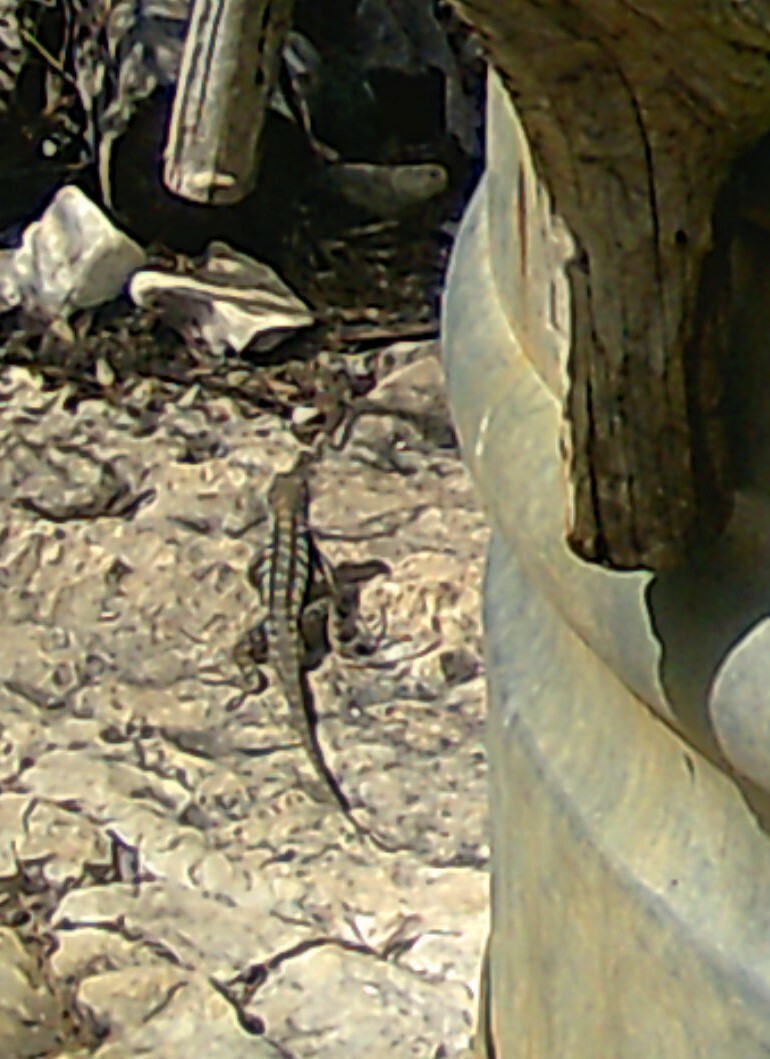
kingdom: Animalia
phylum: Chordata
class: Squamata
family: Phrynosomatidae
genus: Sceloporus
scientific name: Sceloporus olivaceus
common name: Texas spiny lizard
